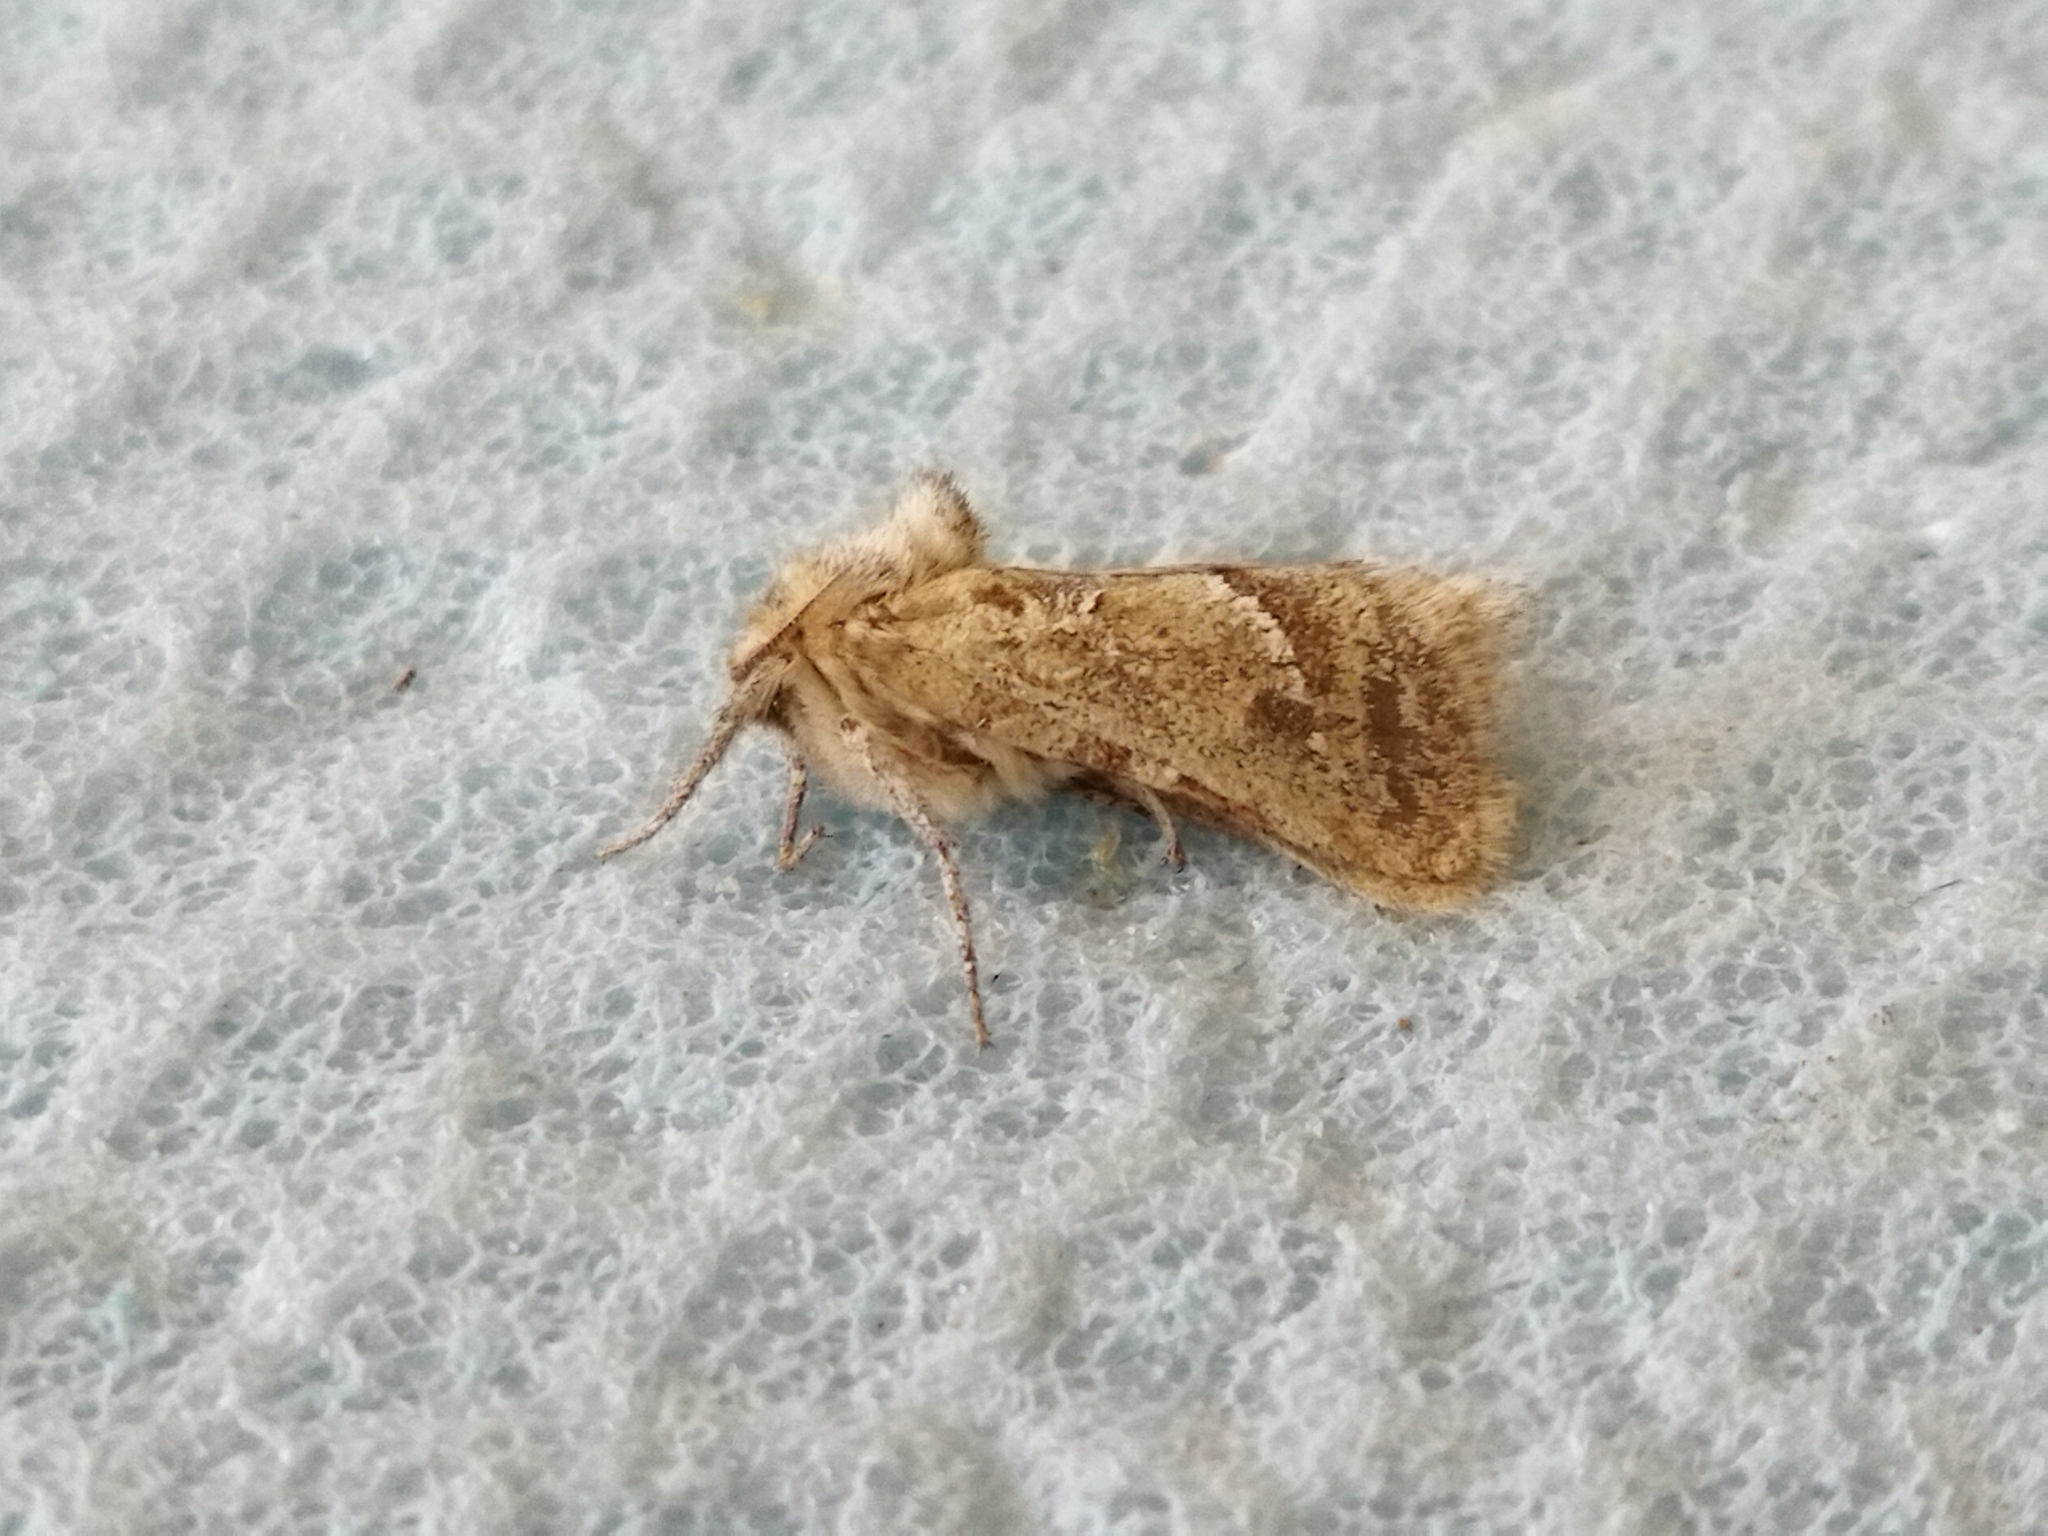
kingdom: Animalia
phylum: Arthropoda
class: Insecta
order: Lepidoptera
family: Hepialidae
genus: Triodia
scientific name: Triodia amasinus
